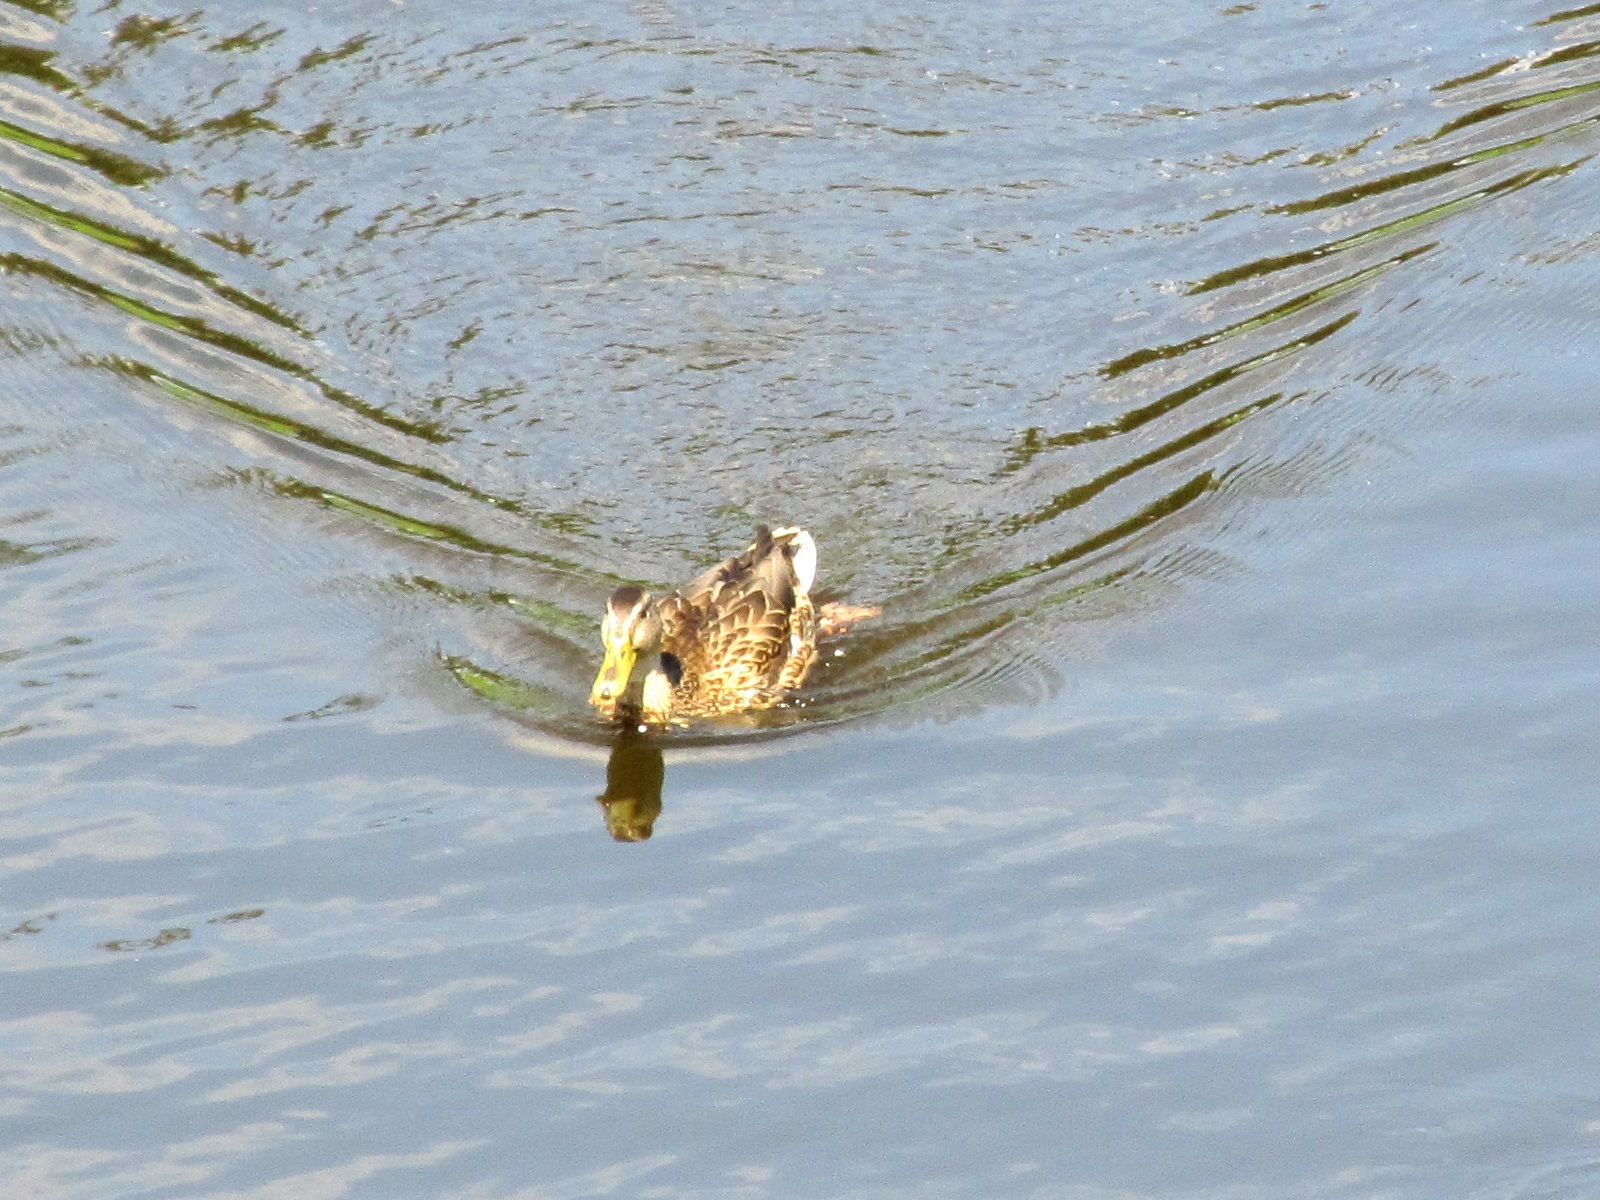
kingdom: Animalia
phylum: Chordata
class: Aves
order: Anseriformes
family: Anatidae
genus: Anas
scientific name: Anas platyrhynchos
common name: Mallard
